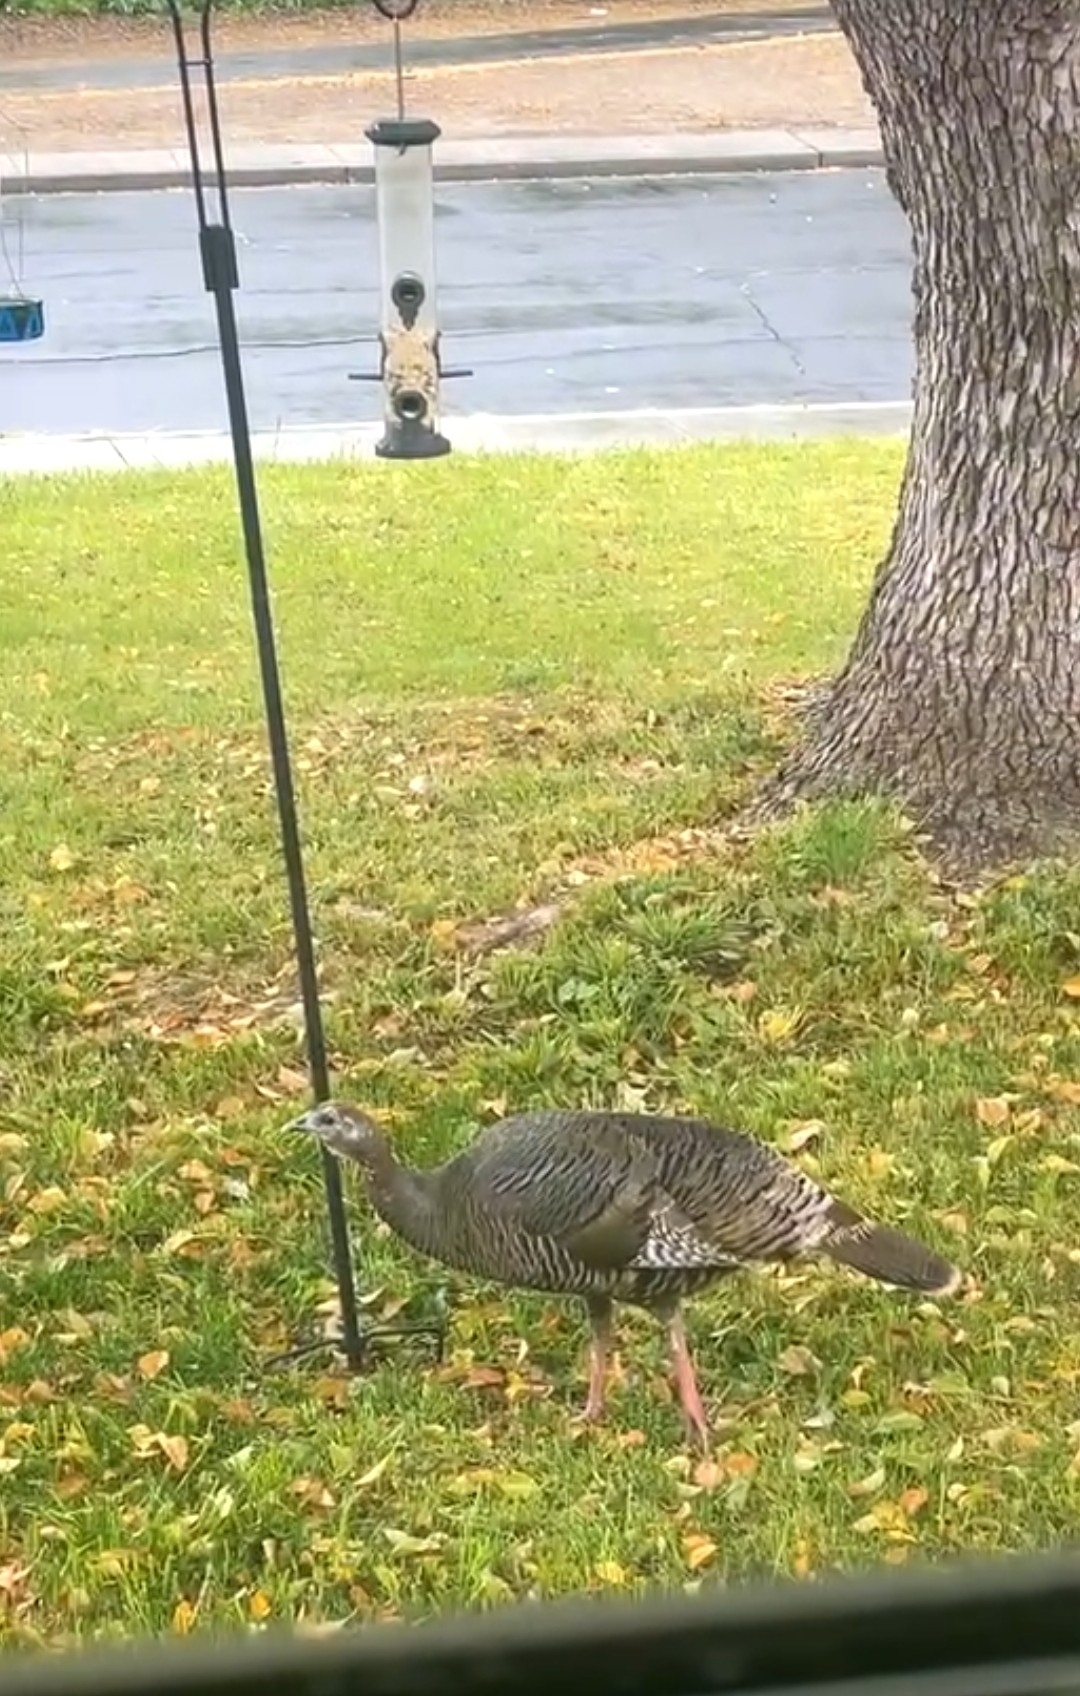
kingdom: Animalia
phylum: Chordata
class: Aves
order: Galliformes
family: Phasianidae
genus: Meleagris
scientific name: Meleagris gallopavo
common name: Wild turkey
